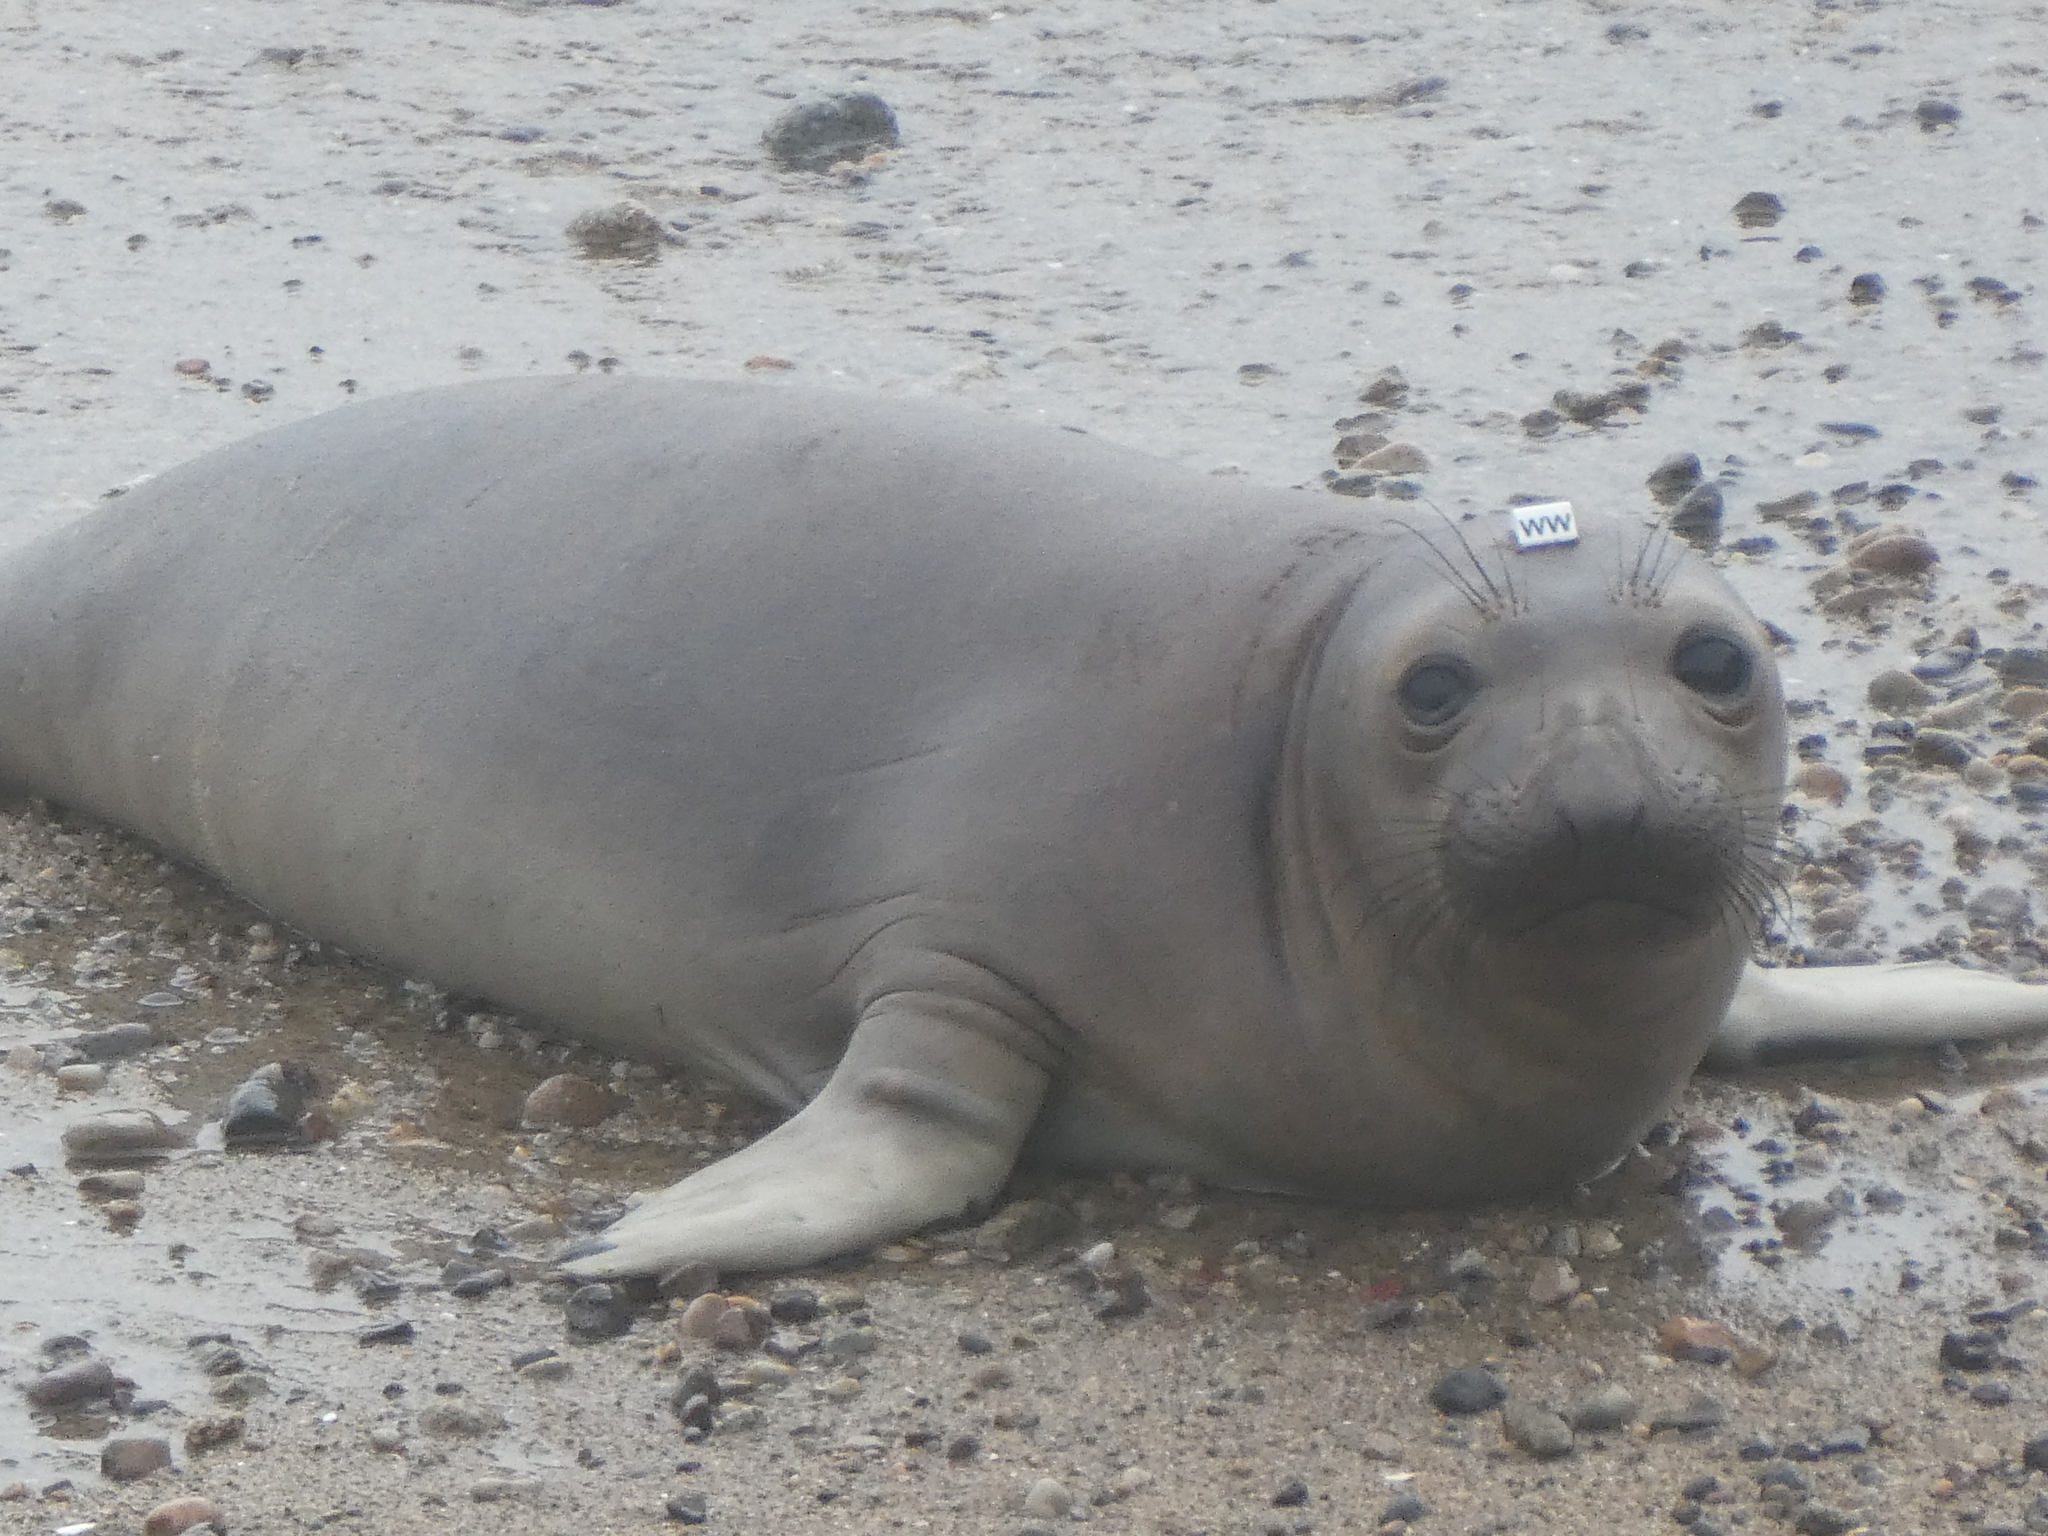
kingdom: Animalia
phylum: Chordata
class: Mammalia
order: Carnivora
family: Phocidae
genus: Mirounga
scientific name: Mirounga angustirostris
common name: Northern elephant seal
